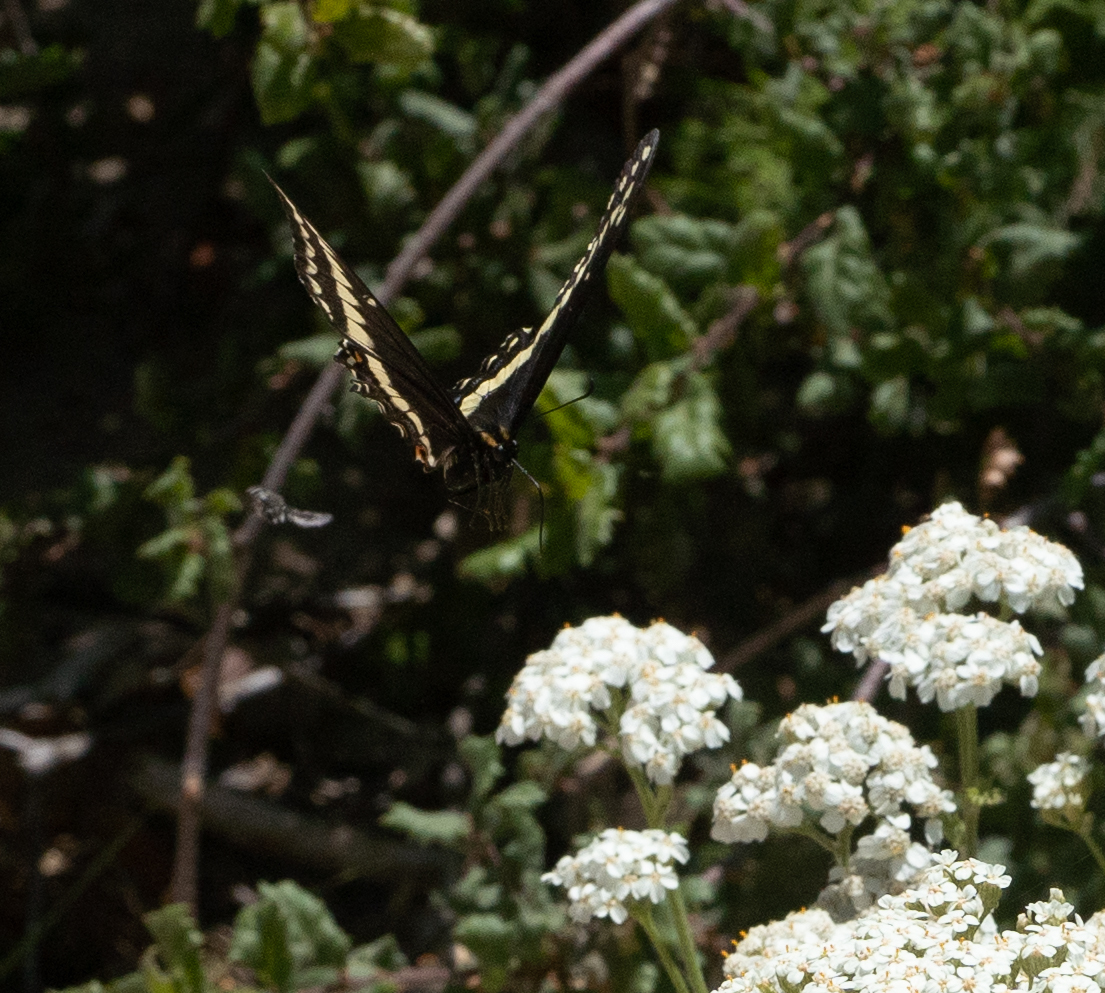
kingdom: Animalia
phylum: Arthropoda
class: Insecta
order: Lepidoptera
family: Papilionidae
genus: Papilio
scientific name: Papilio indra
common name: Cliff swallowtail
